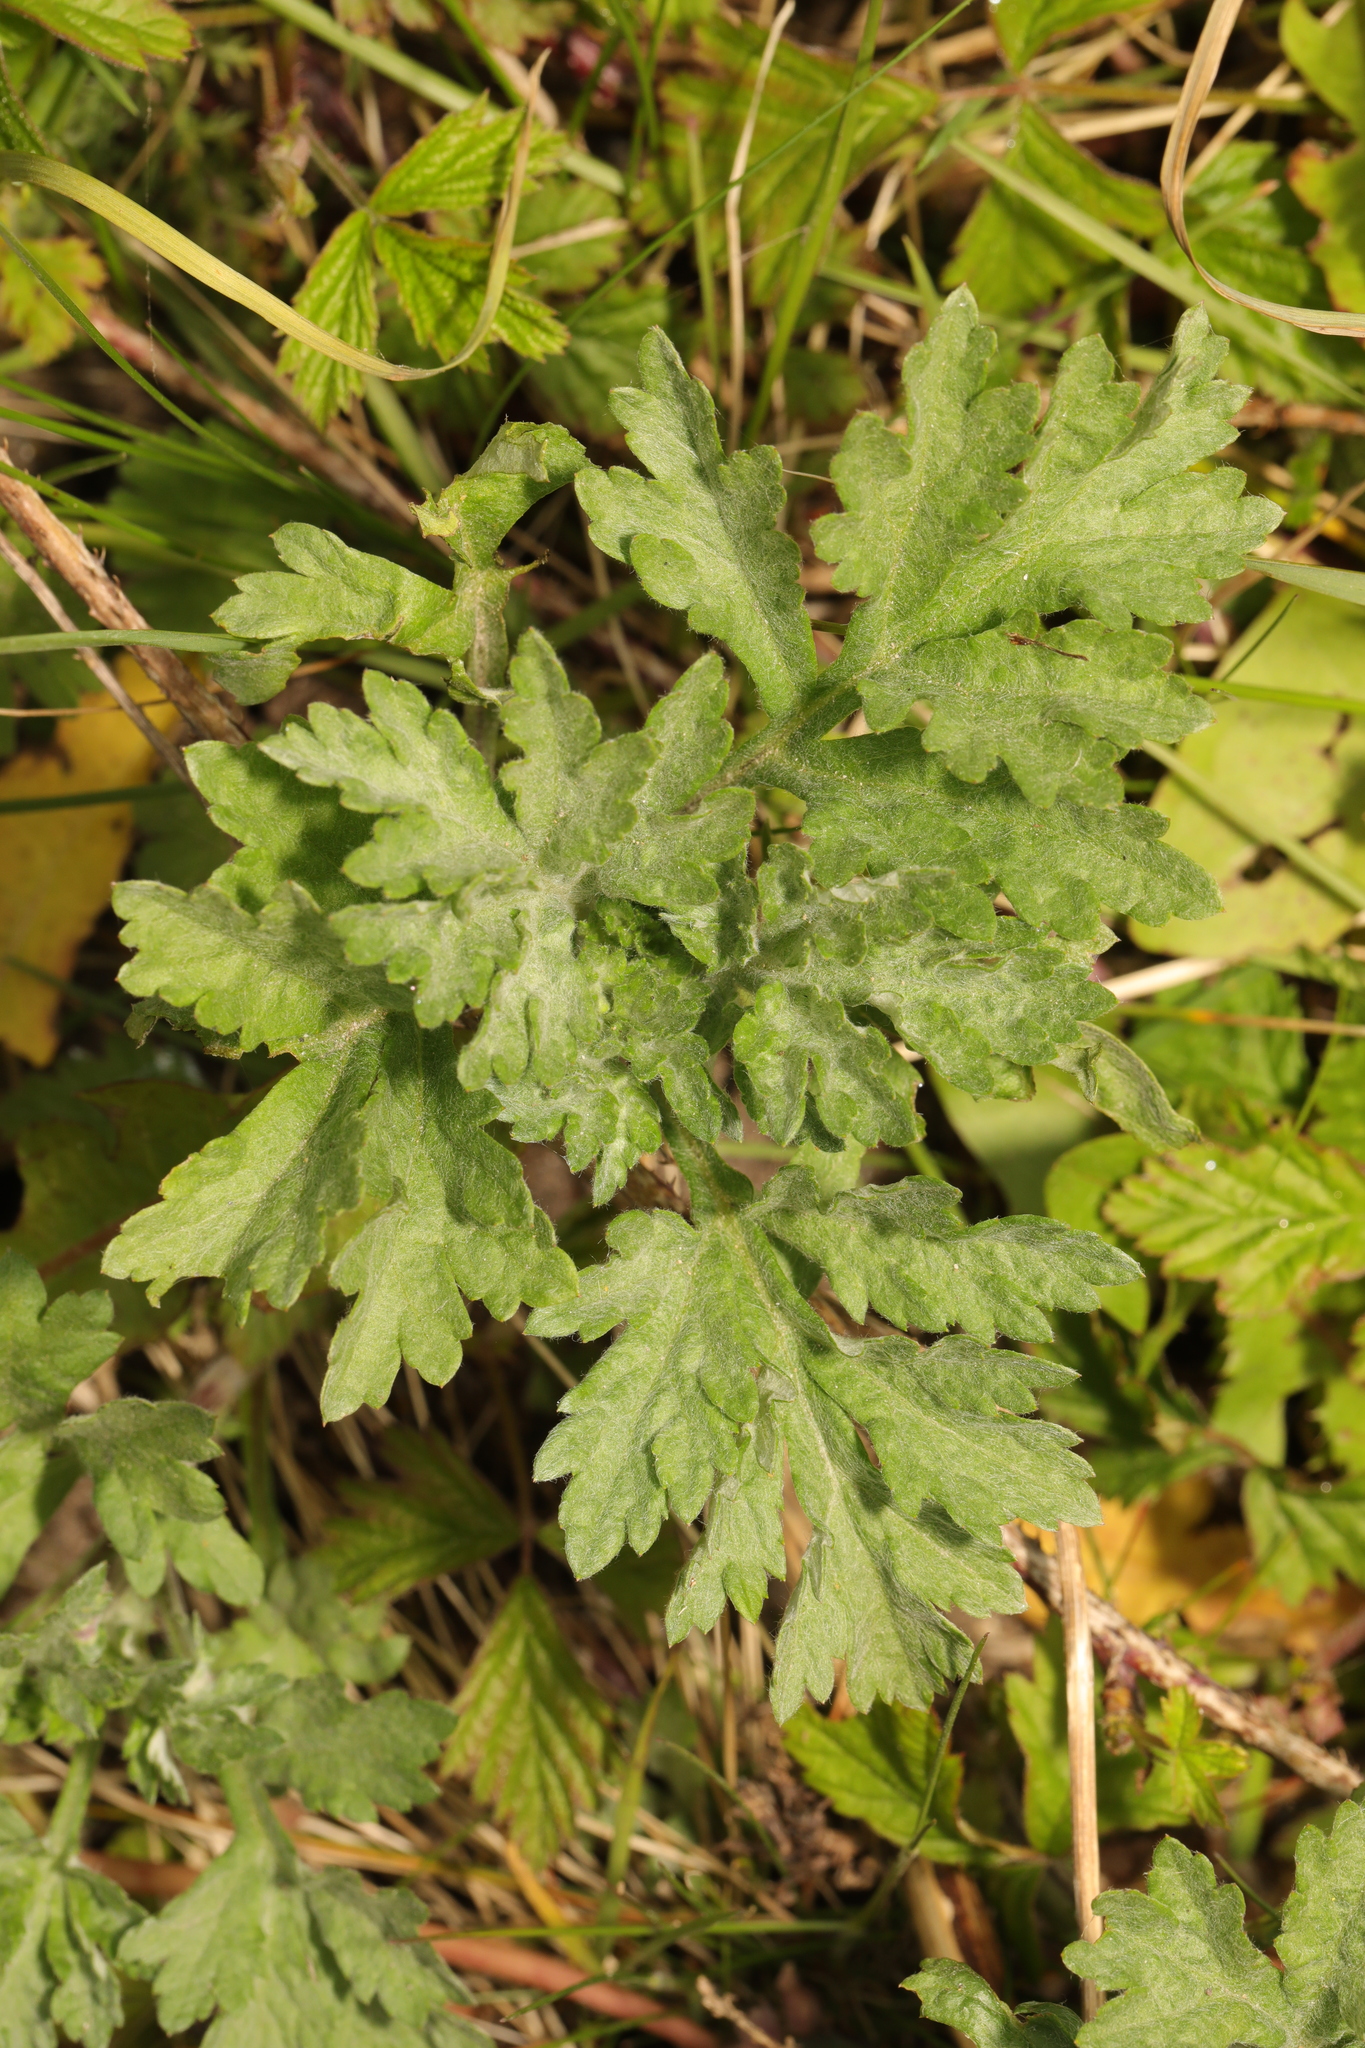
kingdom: Plantae
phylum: Tracheophyta
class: Magnoliopsida
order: Asterales
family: Asteraceae
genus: Artemisia
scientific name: Artemisia vulgaris
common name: Mugwort
